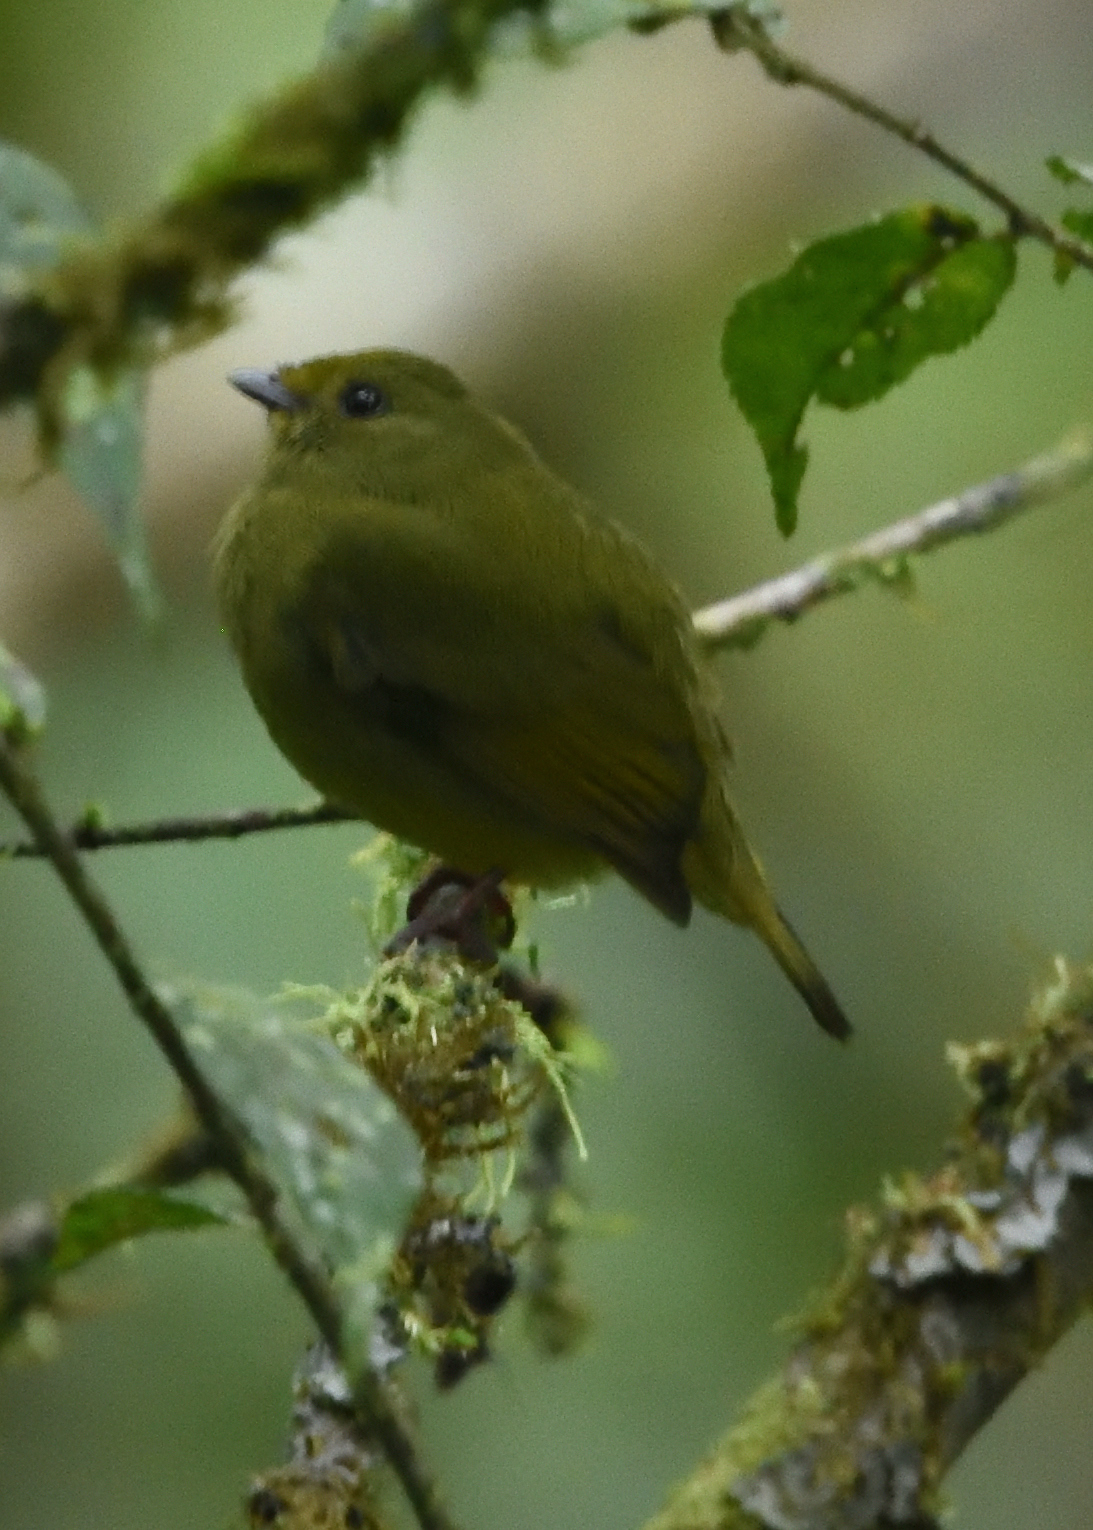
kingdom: Animalia
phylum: Chordata
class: Aves
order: Passeriformes
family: Pipridae
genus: Masius
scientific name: Masius chrysopterus
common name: Golden-winged manakin
